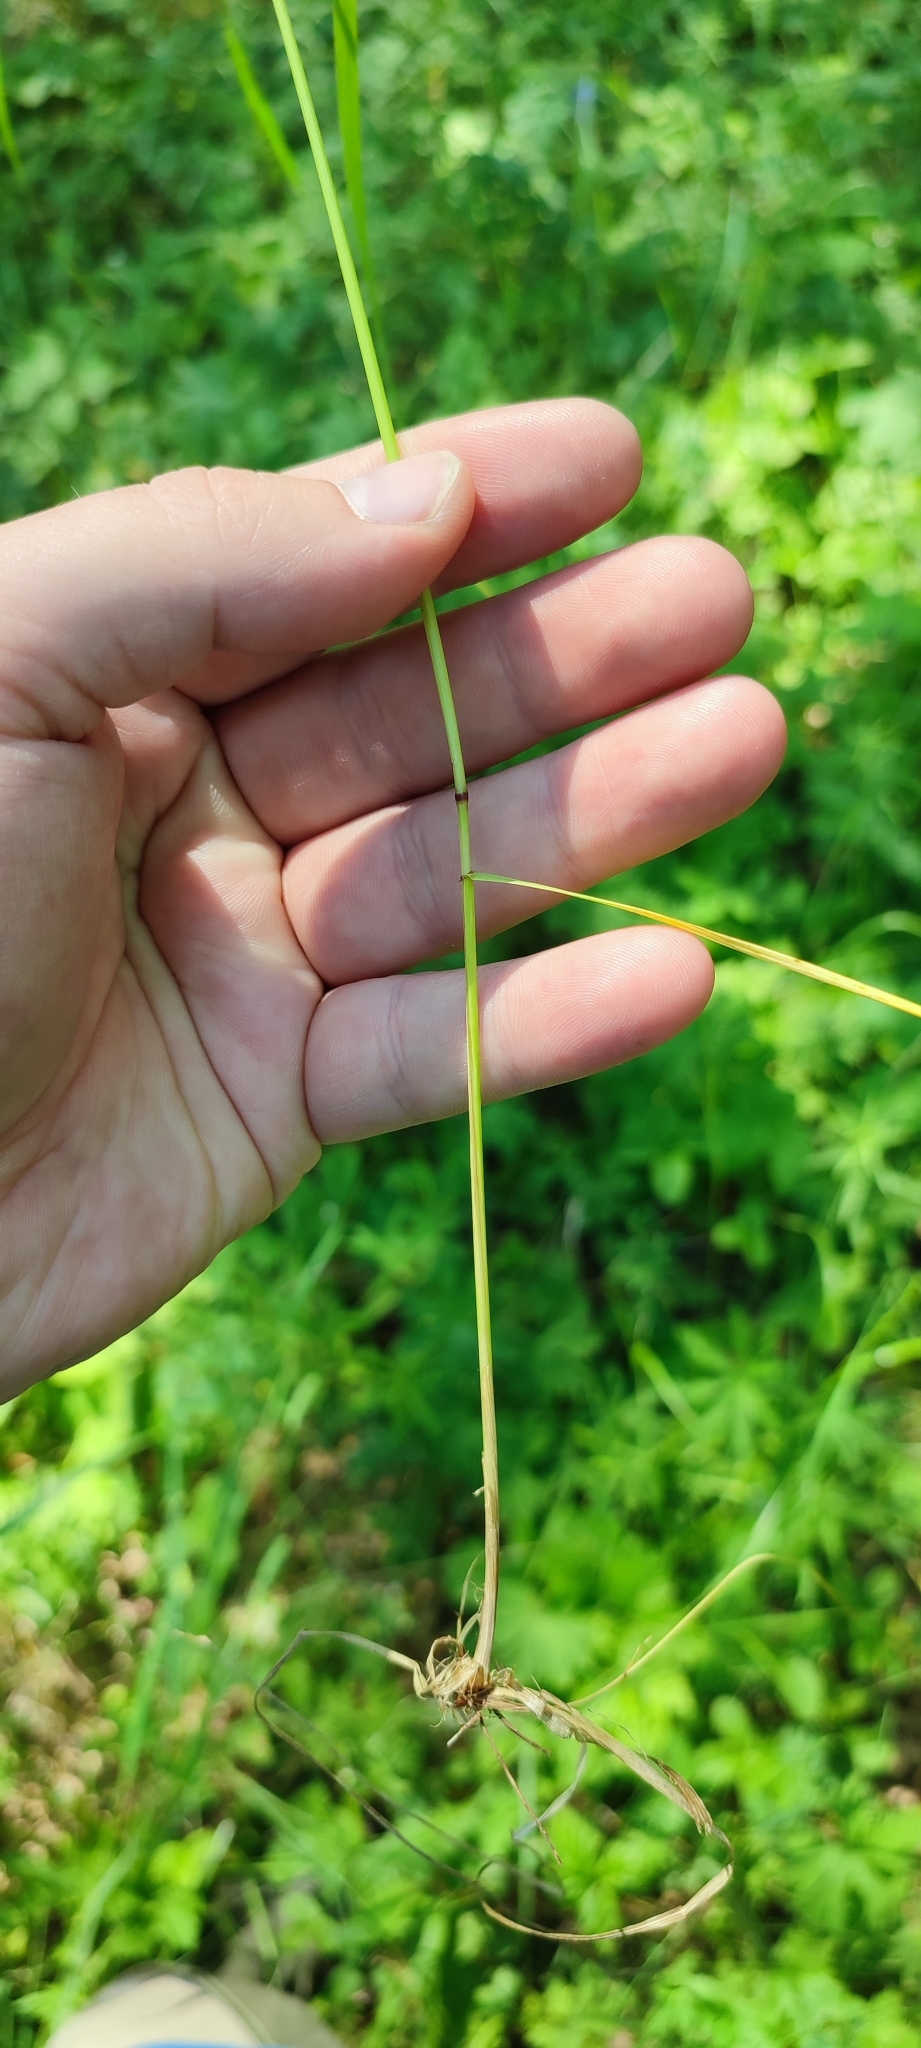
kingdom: Plantae
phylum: Tracheophyta
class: Liliopsida
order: Poales
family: Poaceae
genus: Lolium
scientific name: Lolium pratense
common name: Dover grass
